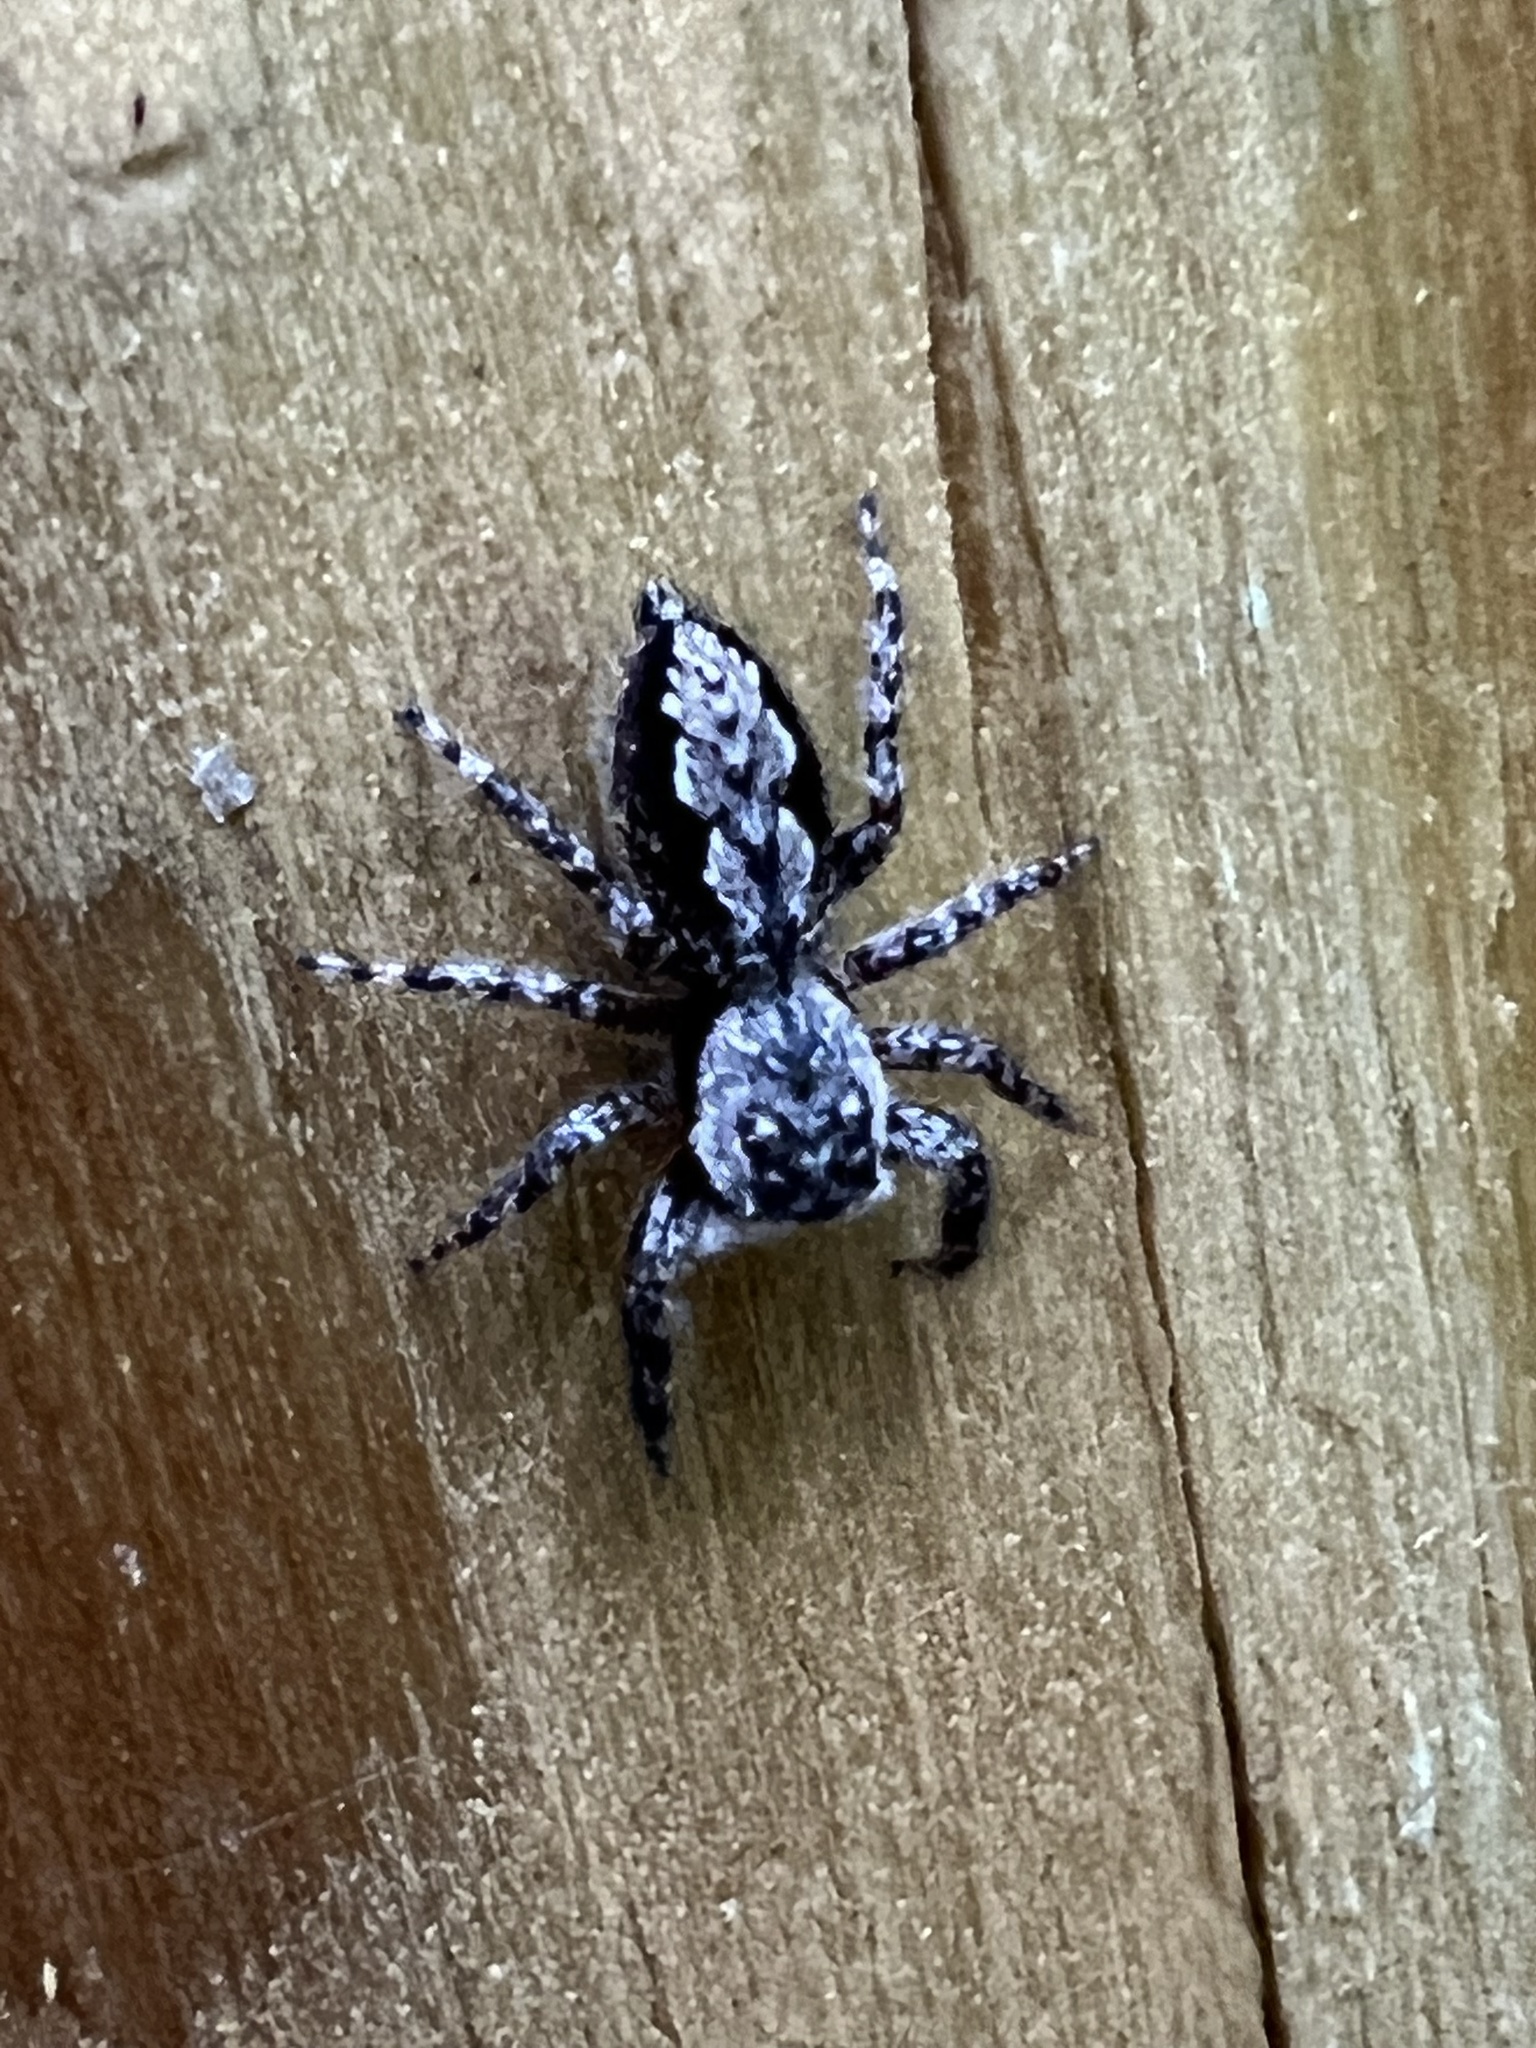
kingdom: Animalia
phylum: Arthropoda
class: Arachnida
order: Araneae
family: Salticidae
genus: Platycryptus
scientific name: Platycryptus undatus
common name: Tan jumping spider
